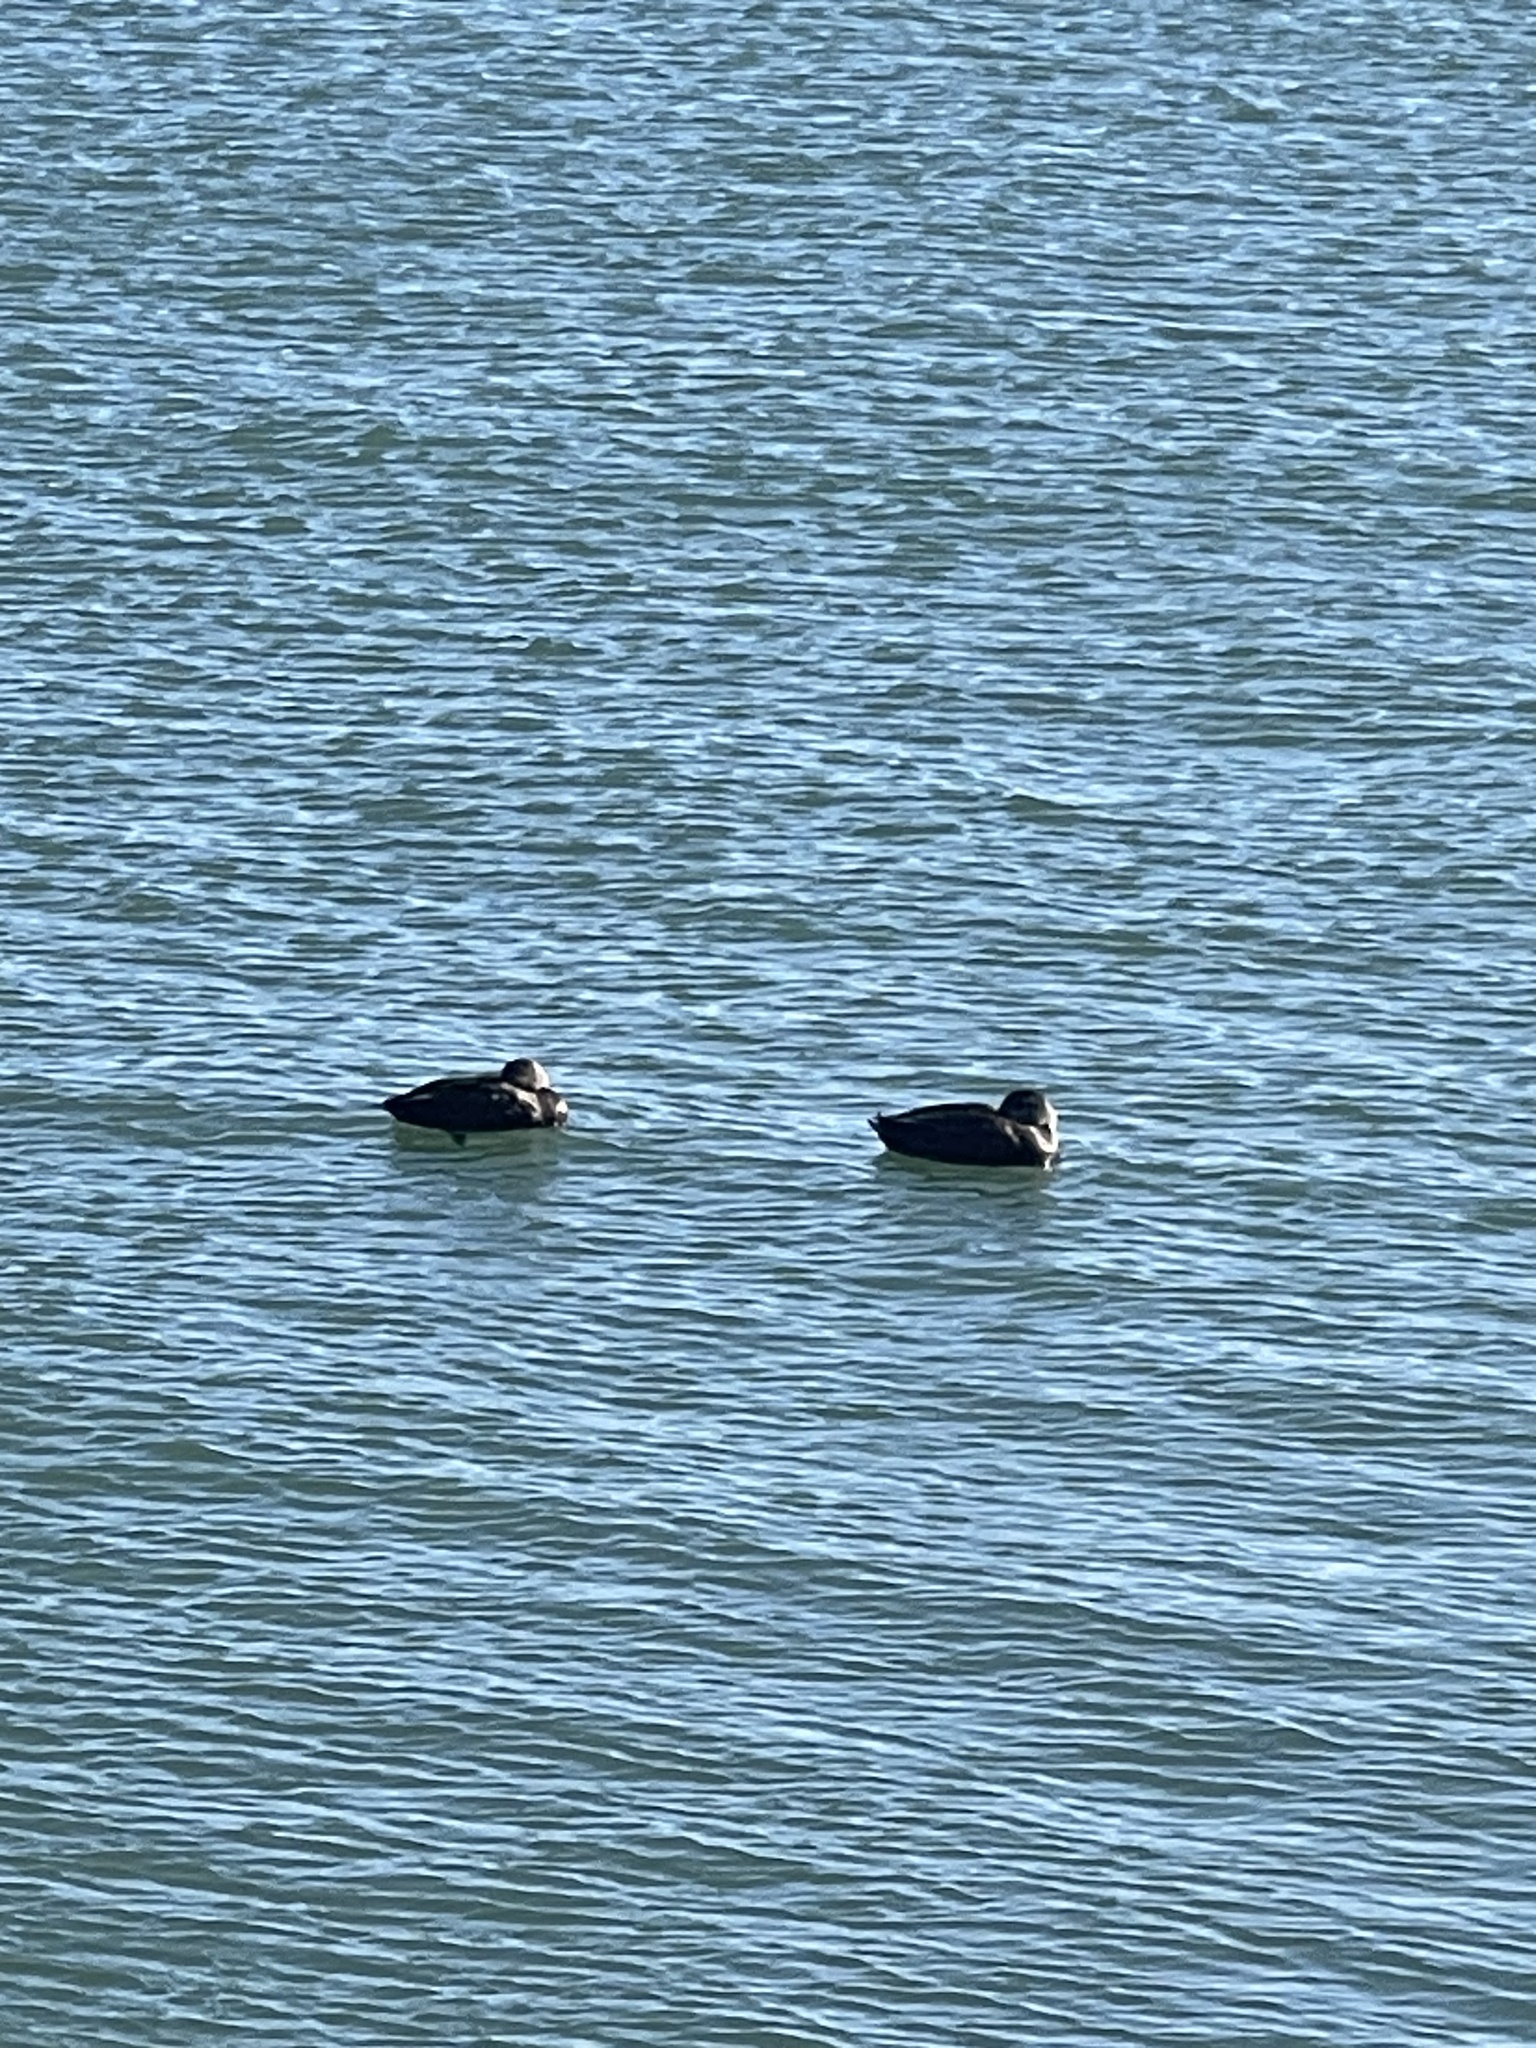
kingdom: Animalia
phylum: Chordata
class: Aves
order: Anseriformes
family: Anatidae
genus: Anas
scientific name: Anas rubripes
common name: American black duck
